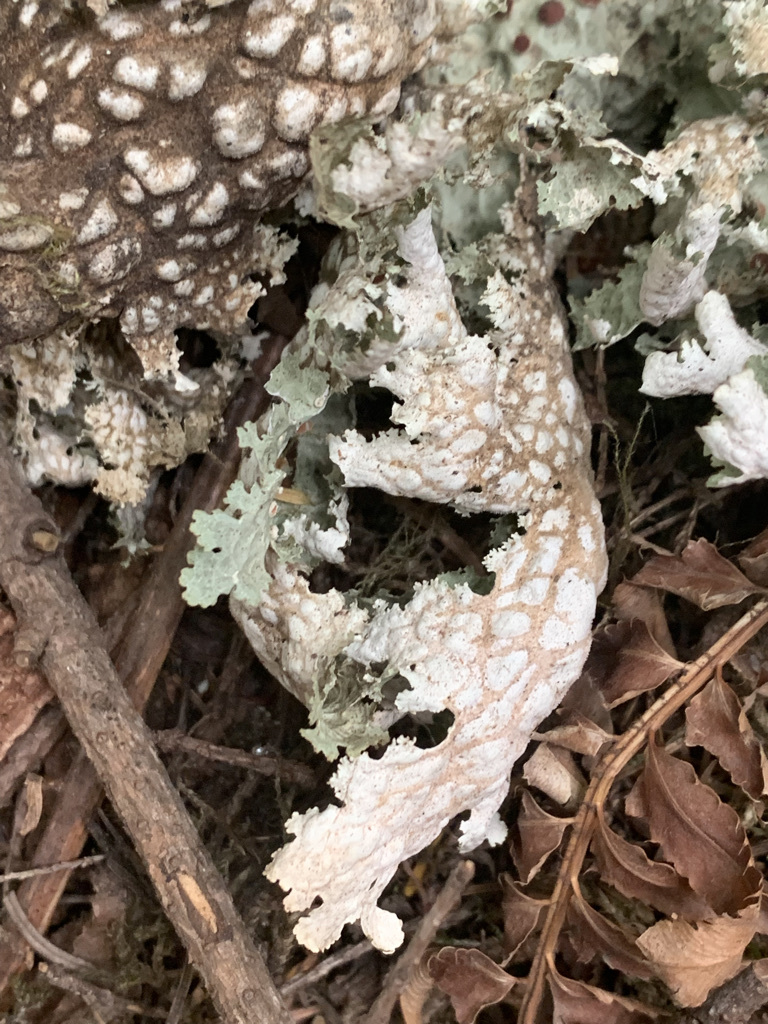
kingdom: Fungi
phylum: Ascomycota
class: Lecanoromycetes
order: Peltigerales
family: Lobariaceae
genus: Lobaria
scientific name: Lobaria oregana
